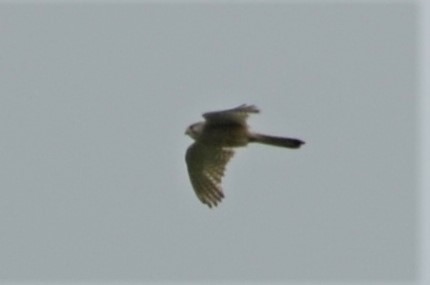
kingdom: Animalia
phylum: Chordata
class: Aves
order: Falconiformes
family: Falconidae
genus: Falco
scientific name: Falco tinnunculus
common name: Common kestrel
